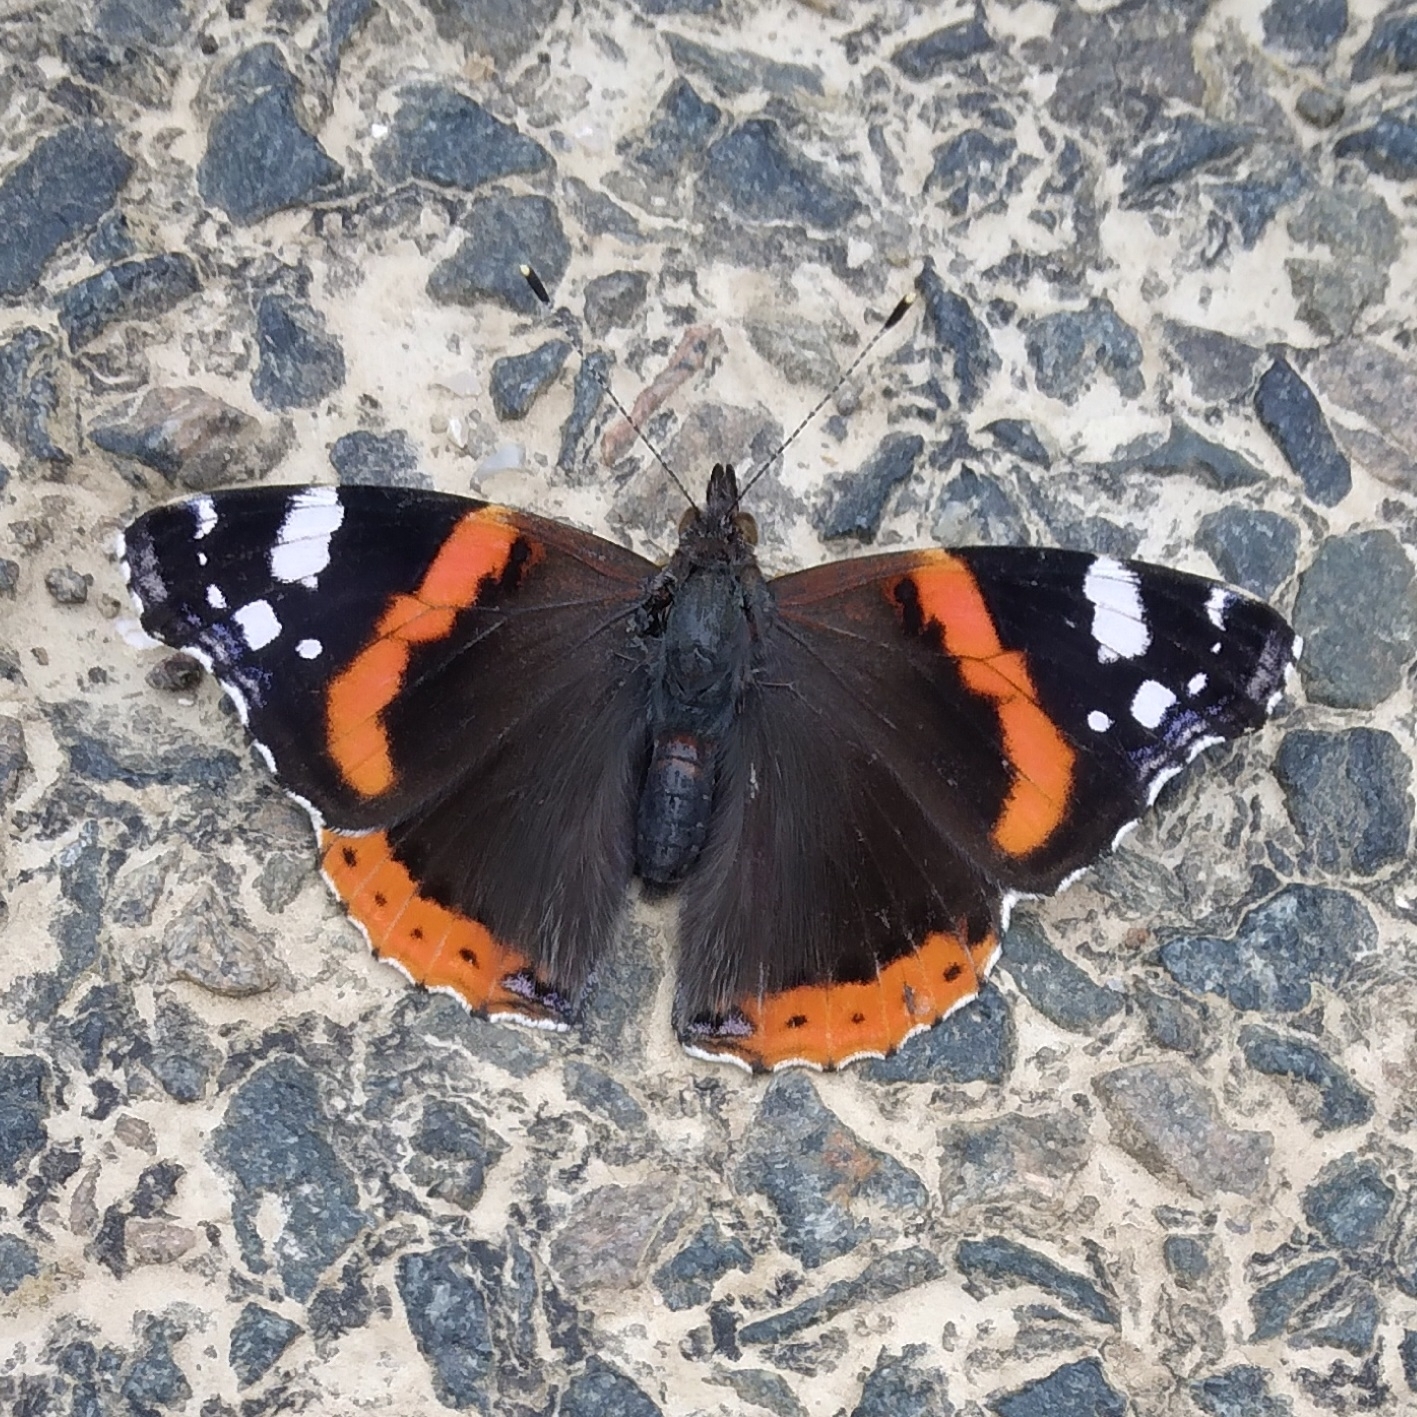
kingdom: Animalia
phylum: Arthropoda
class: Insecta
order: Lepidoptera
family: Nymphalidae
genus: Vanessa
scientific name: Vanessa atalanta
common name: Red admiral
